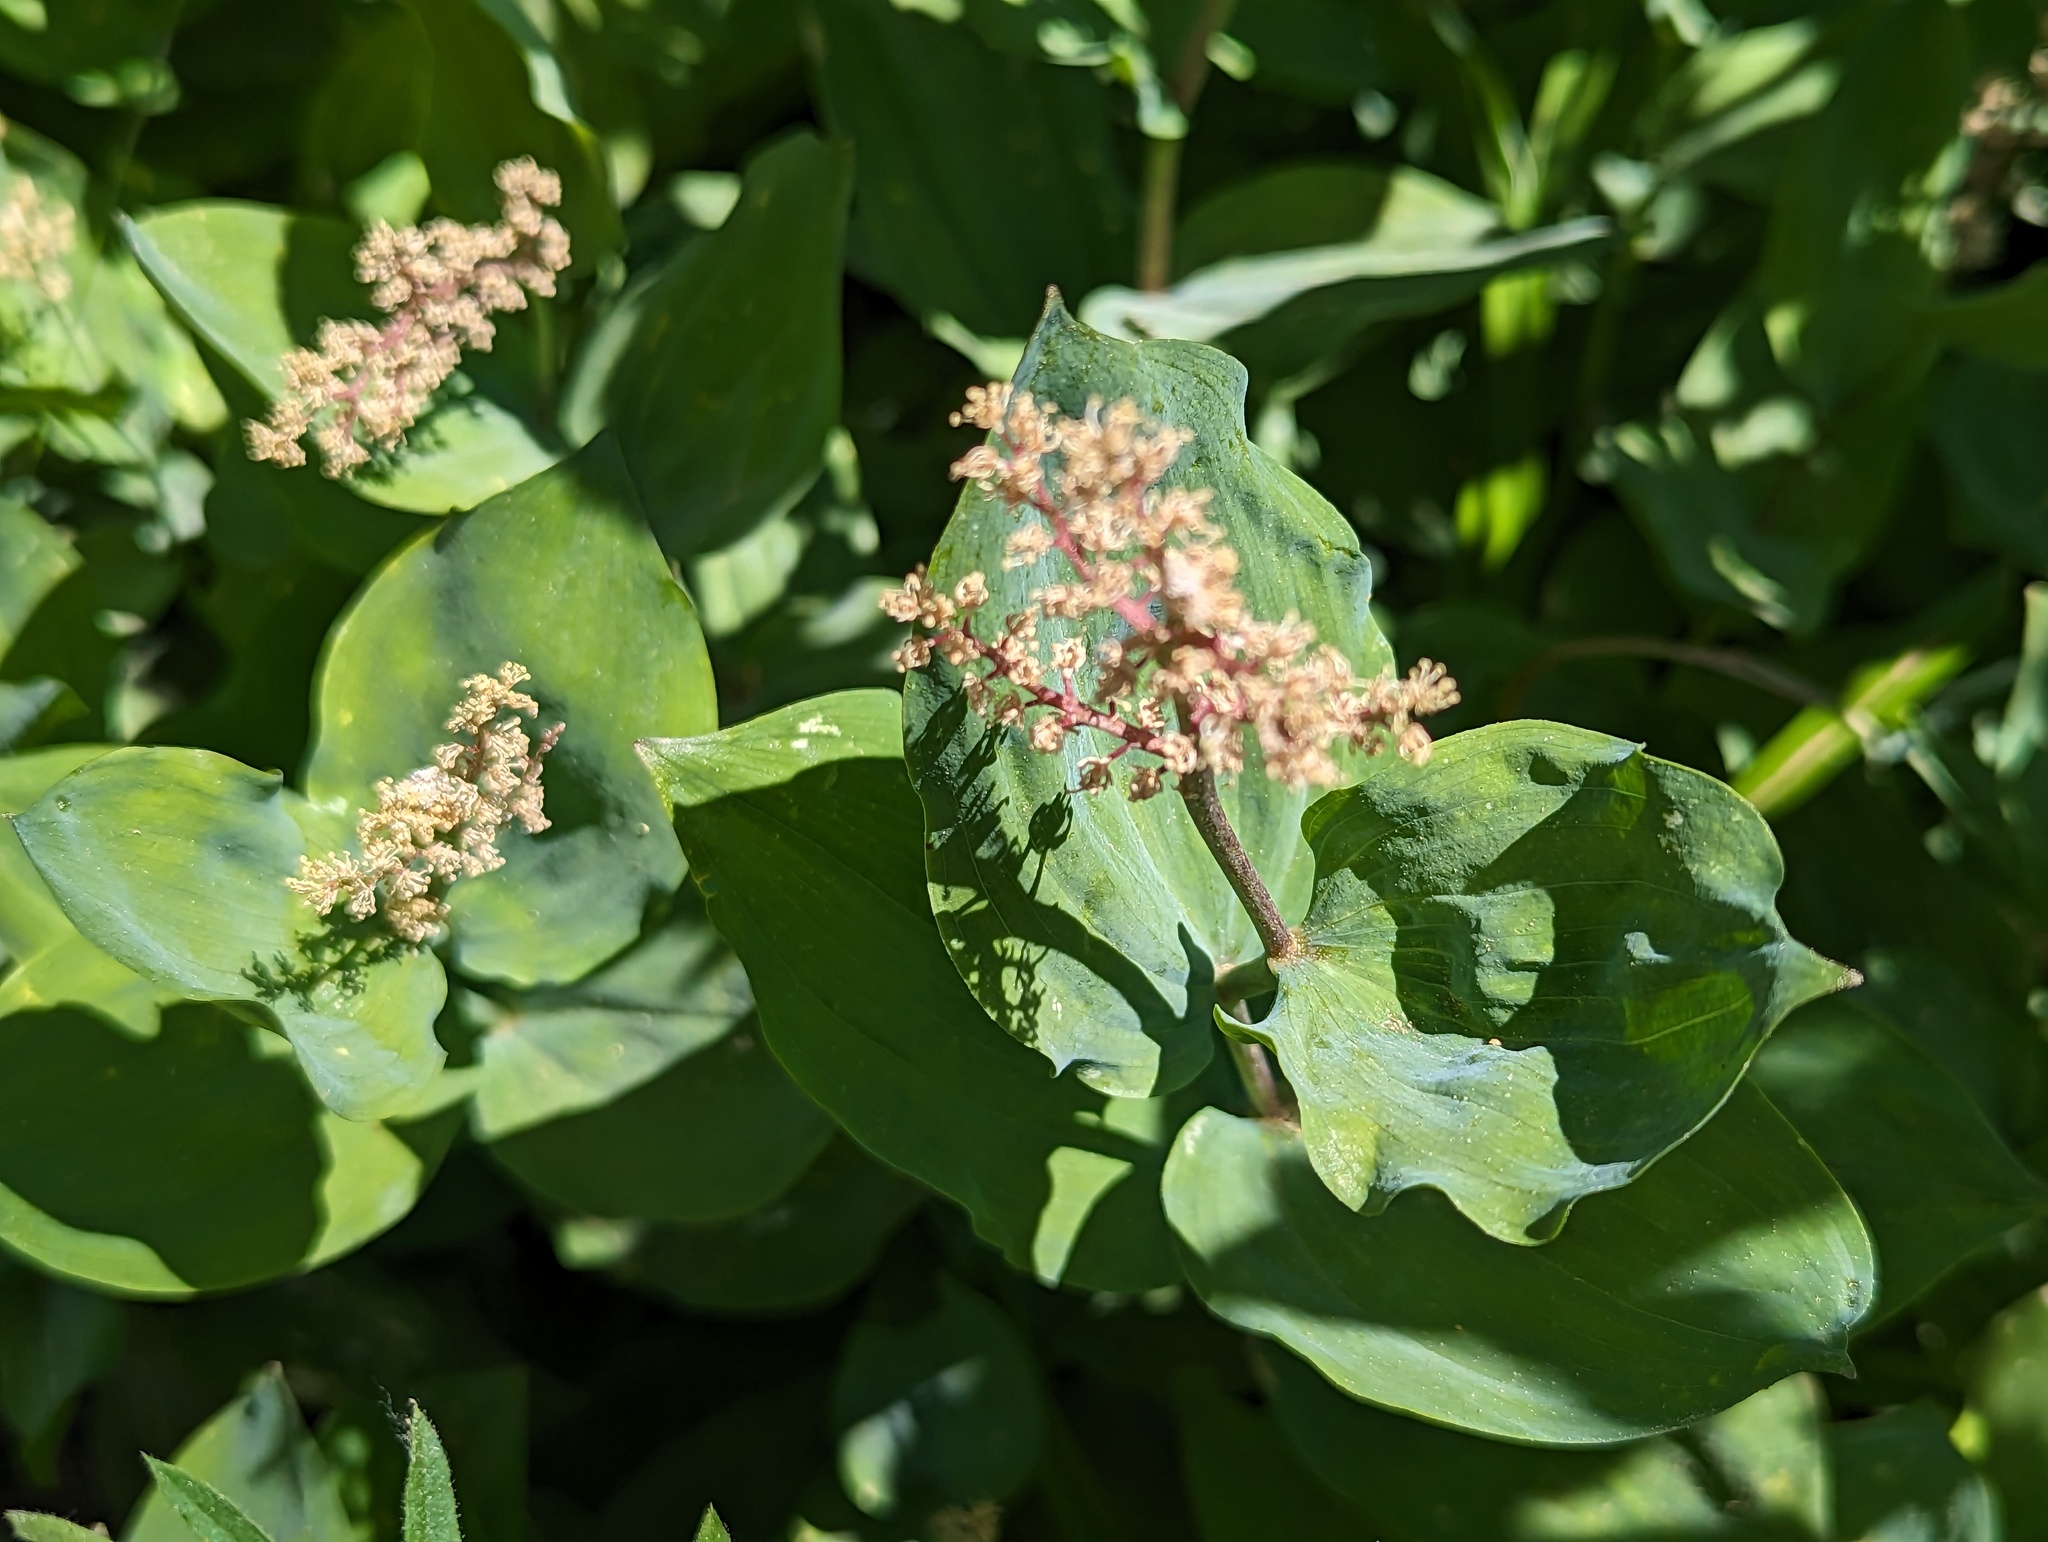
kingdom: Plantae
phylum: Tracheophyta
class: Liliopsida
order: Asparagales
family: Asparagaceae
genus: Maianthemum
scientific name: Maianthemum racemosum
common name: False spikenard
